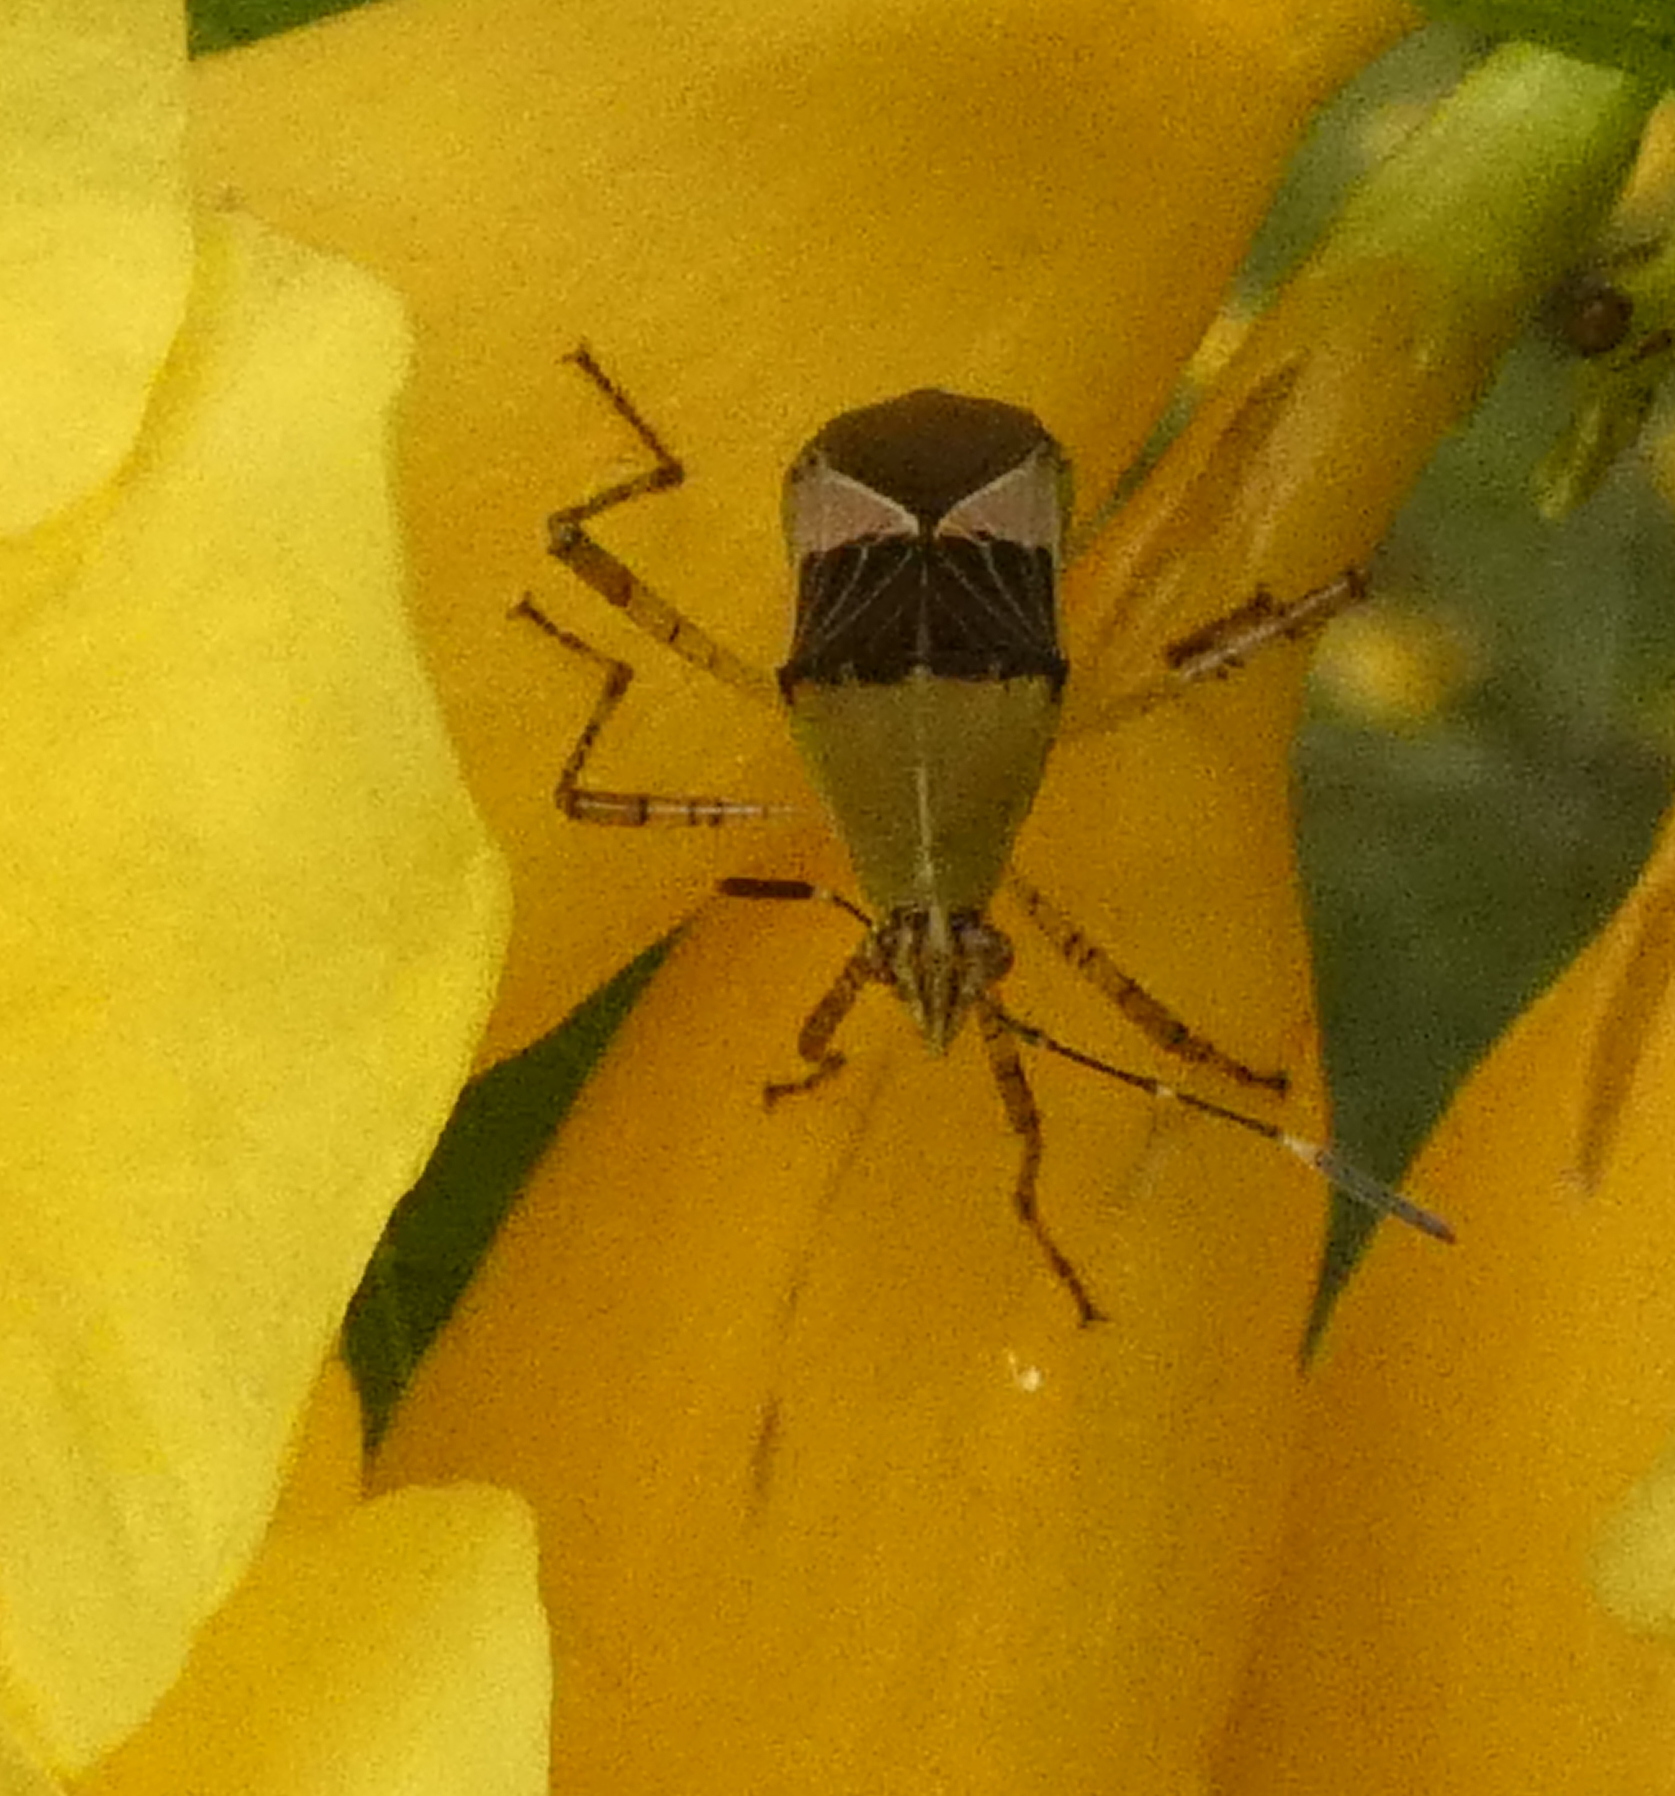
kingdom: Animalia
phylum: Arthropoda
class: Insecta
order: Hemiptera
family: Coreidae
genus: Hypselonotus
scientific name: Hypselonotus fulvus
